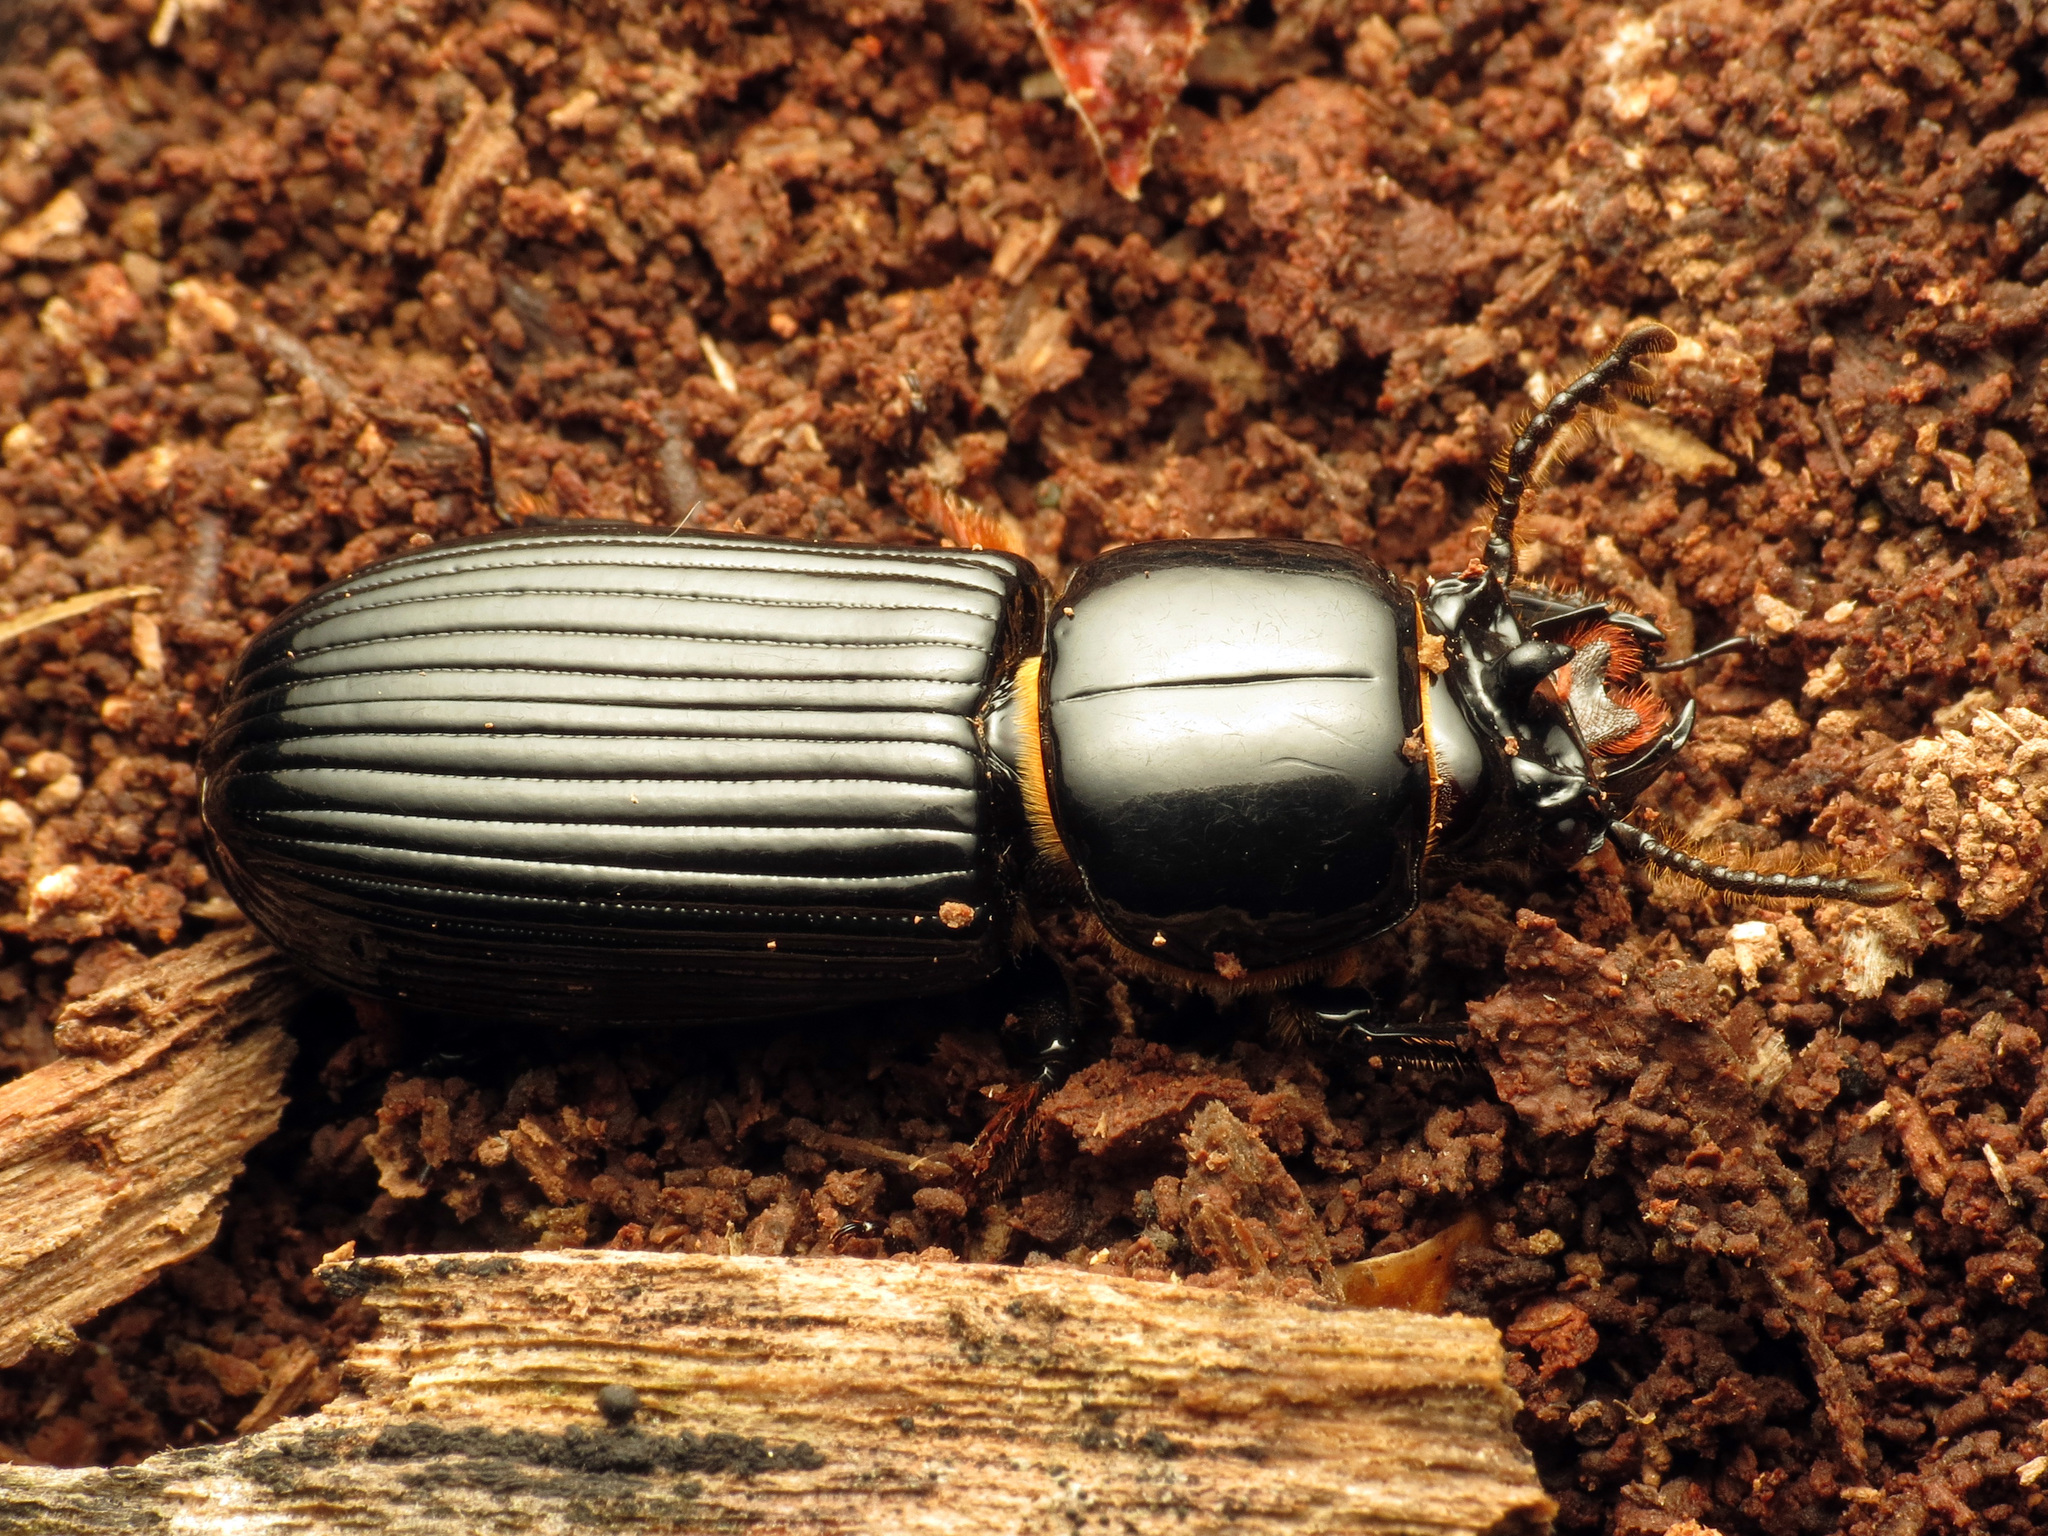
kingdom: Animalia
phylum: Arthropoda
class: Insecta
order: Coleoptera
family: Passalidae
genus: Odontotaenius
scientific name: Odontotaenius disjunctus
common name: Patent leather beetle
